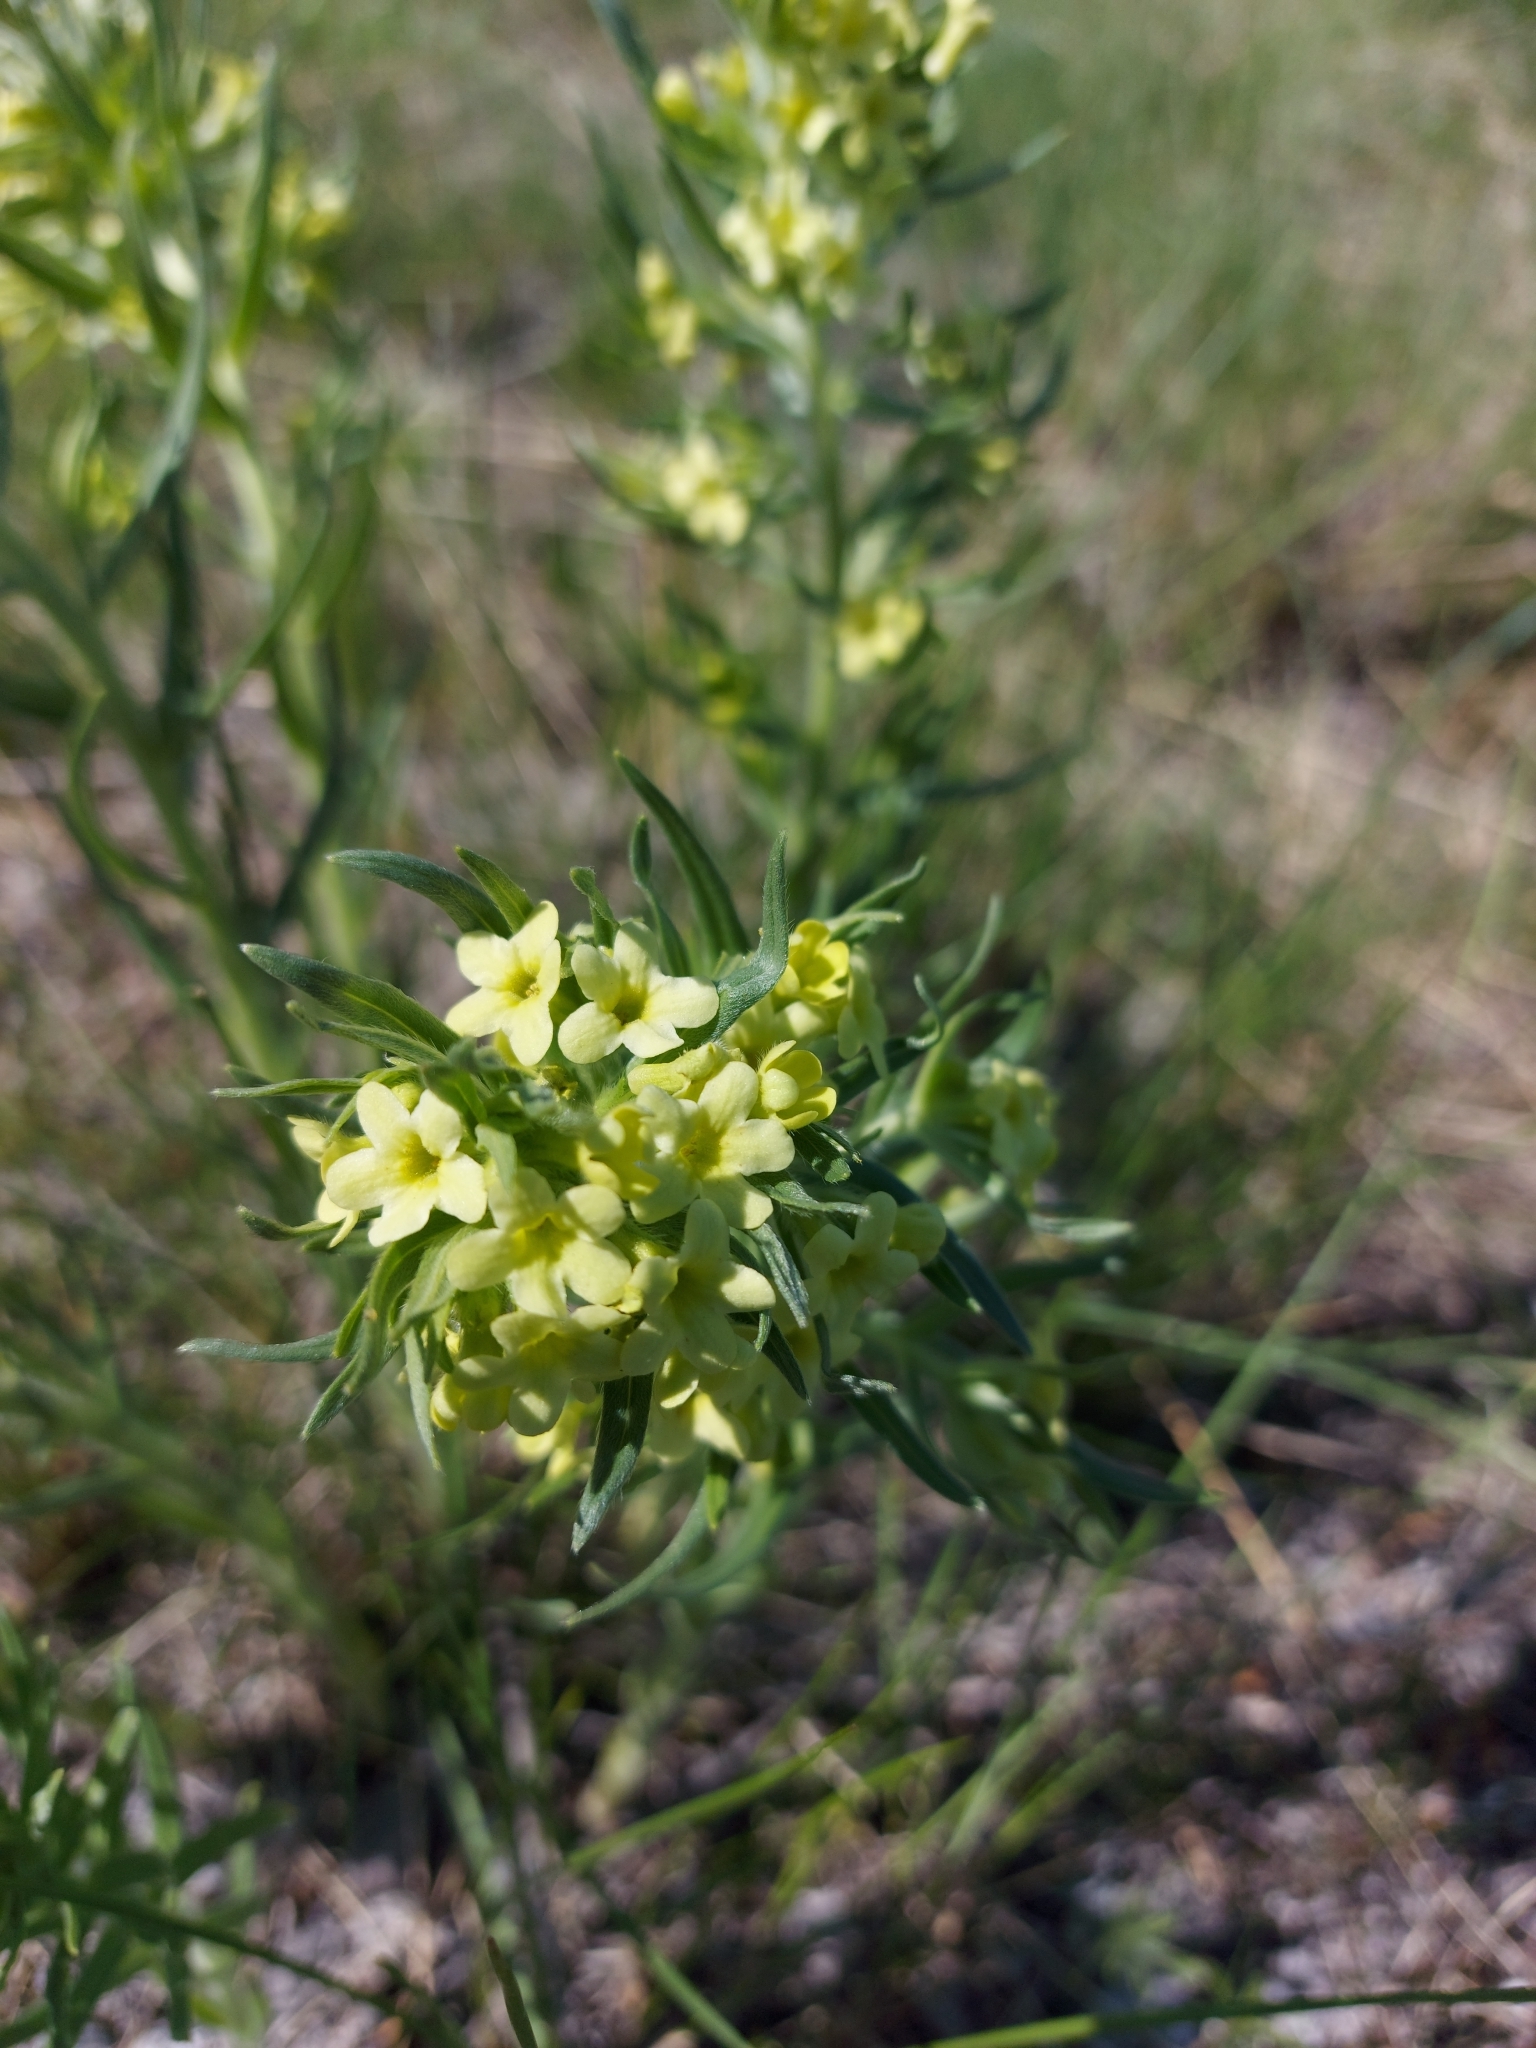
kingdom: Plantae
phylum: Tracheophyta
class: Magnoliopsida
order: Boraginales
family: Boraginaceae
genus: Lithospermum
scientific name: Lithospermum ruderale
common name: Western gromwell
